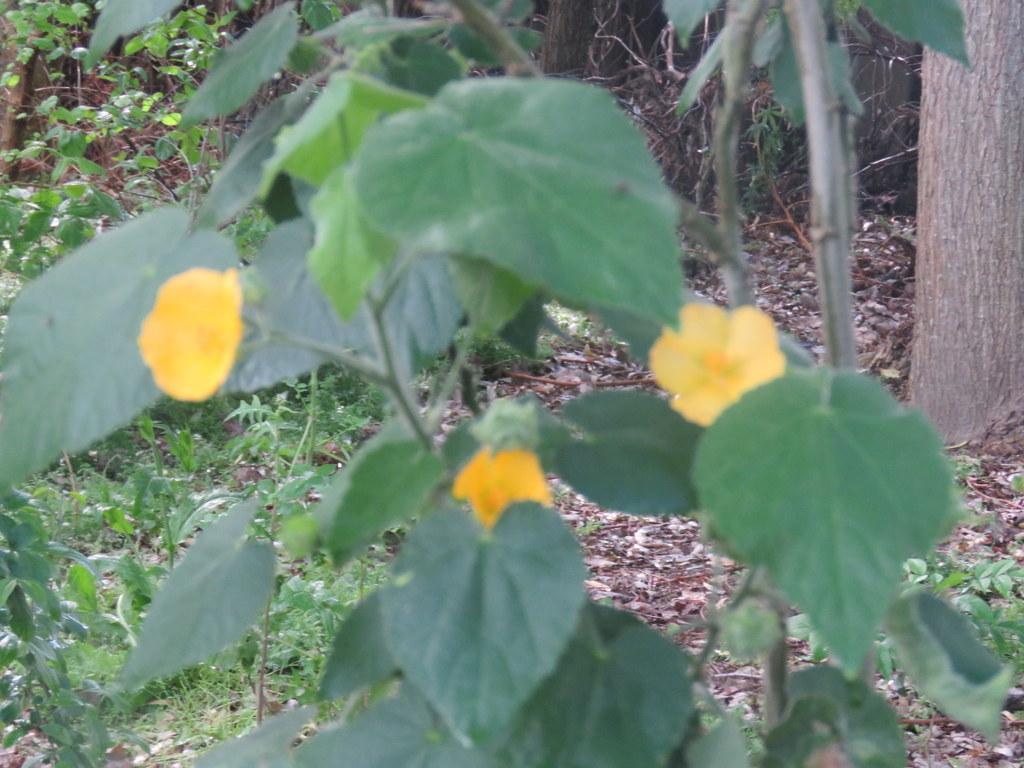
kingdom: Plantae
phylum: Tracheophyta
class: Magnoliopsida
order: Malvales
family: Malvaceae
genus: Abutilon
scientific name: Abutilon grandifolium
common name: Hairy abutilon
